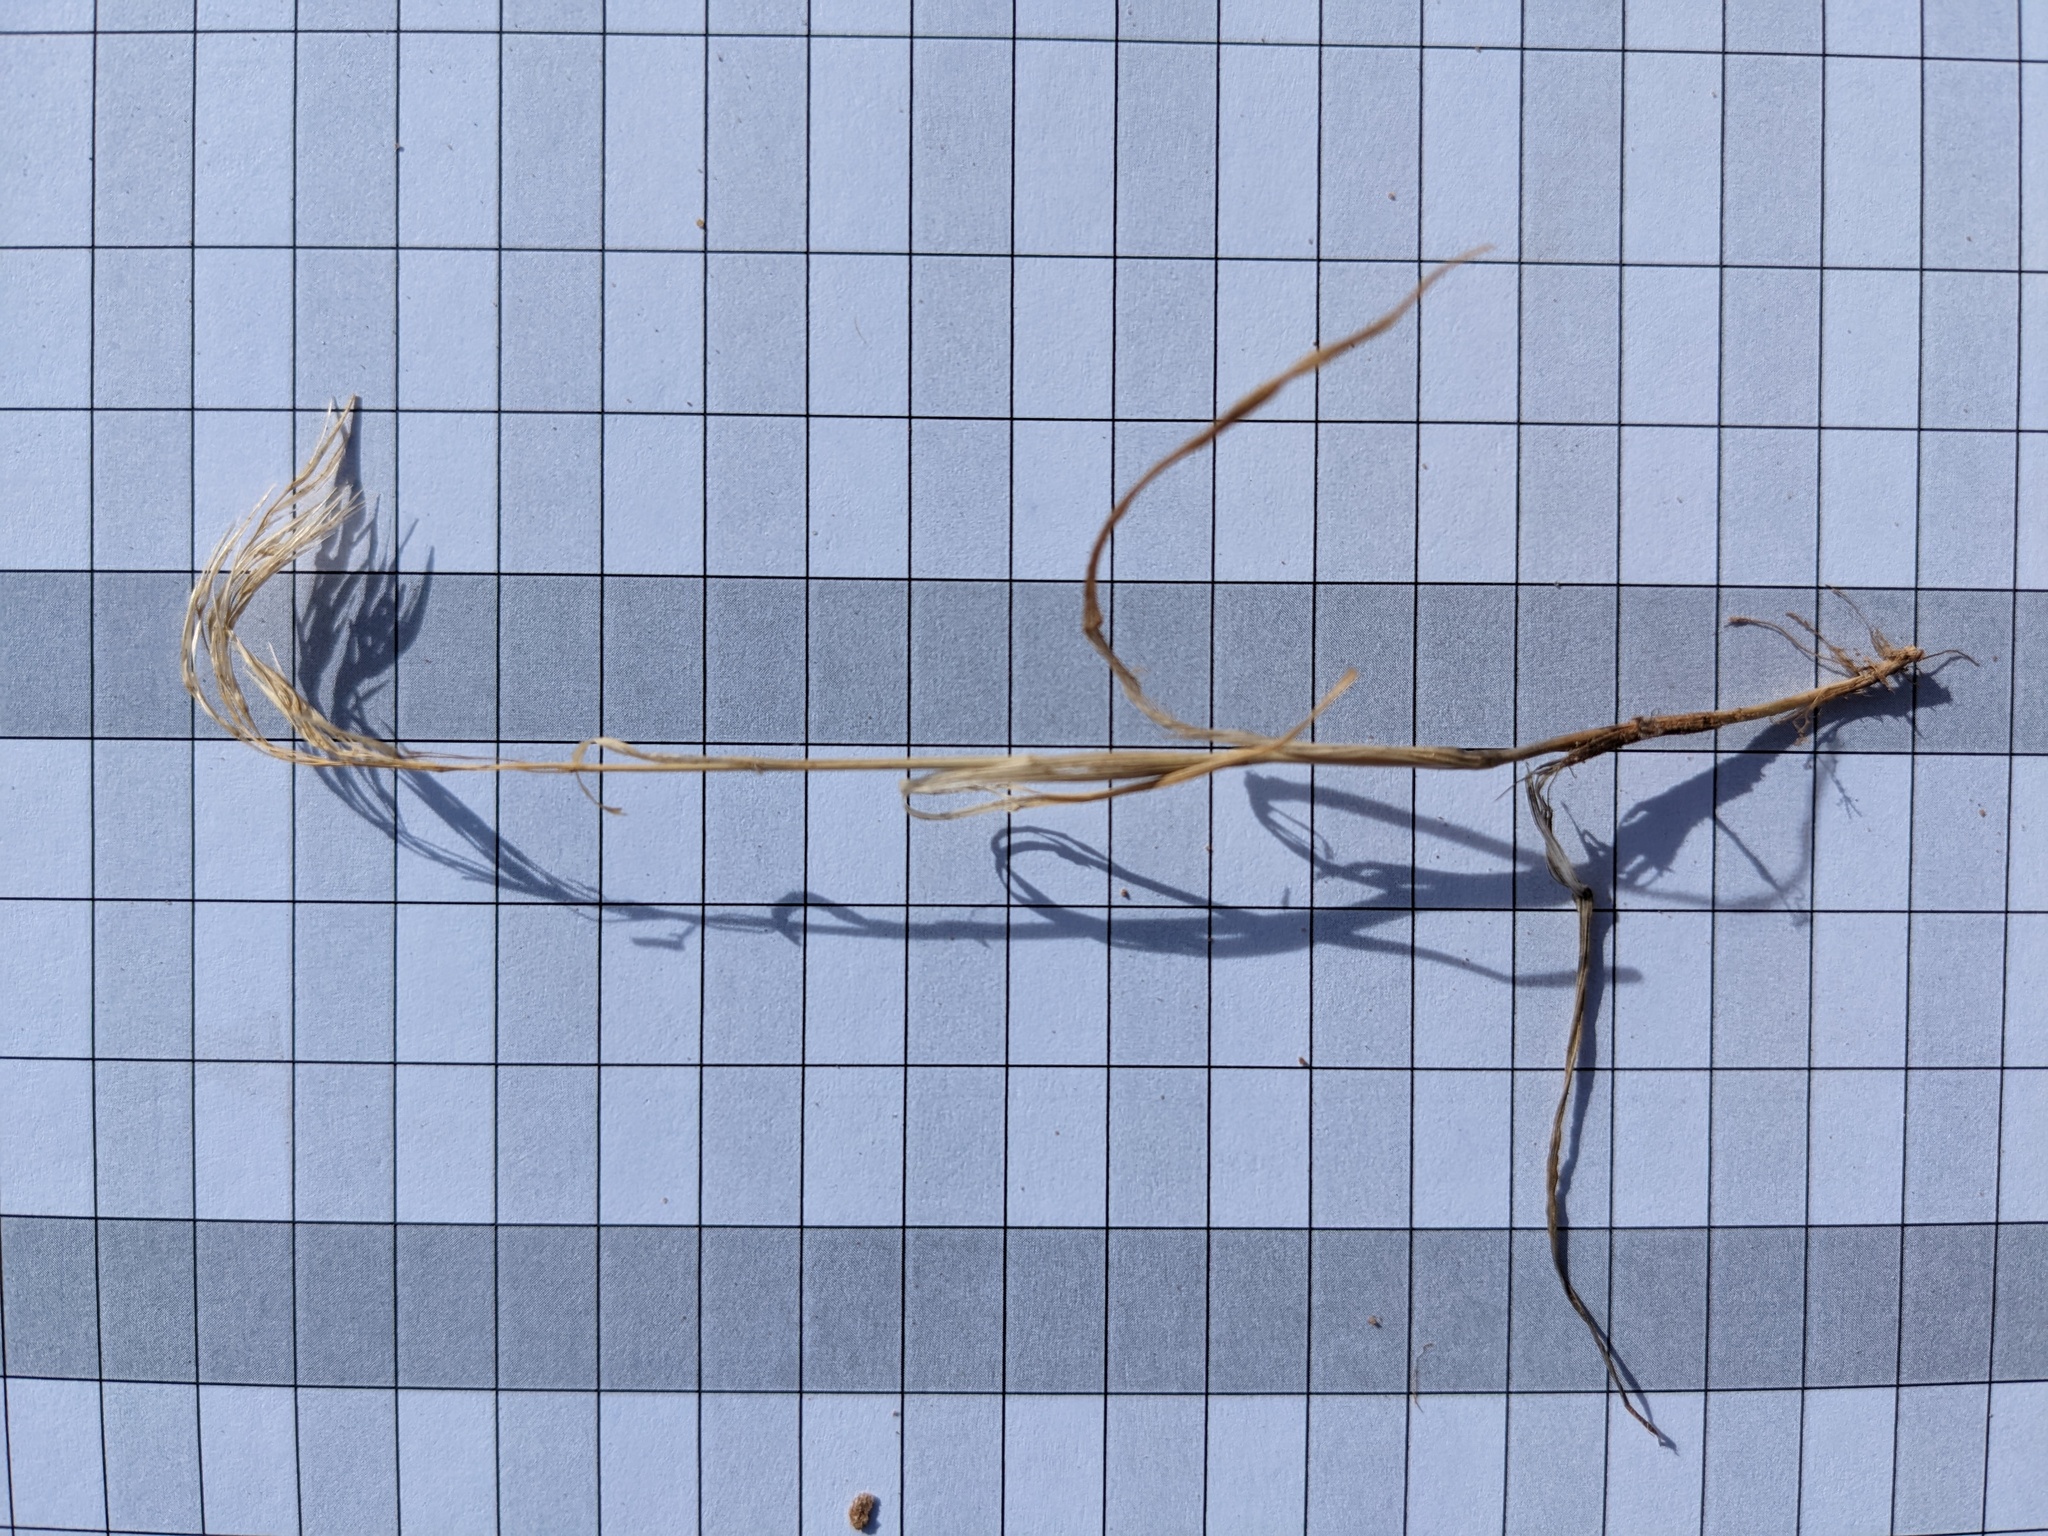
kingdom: Plantae
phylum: Tracheophyta
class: Liliopsida
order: Poales
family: Poaceae
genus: Bromus
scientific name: Bromus tectorum
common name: Cheatgrass
